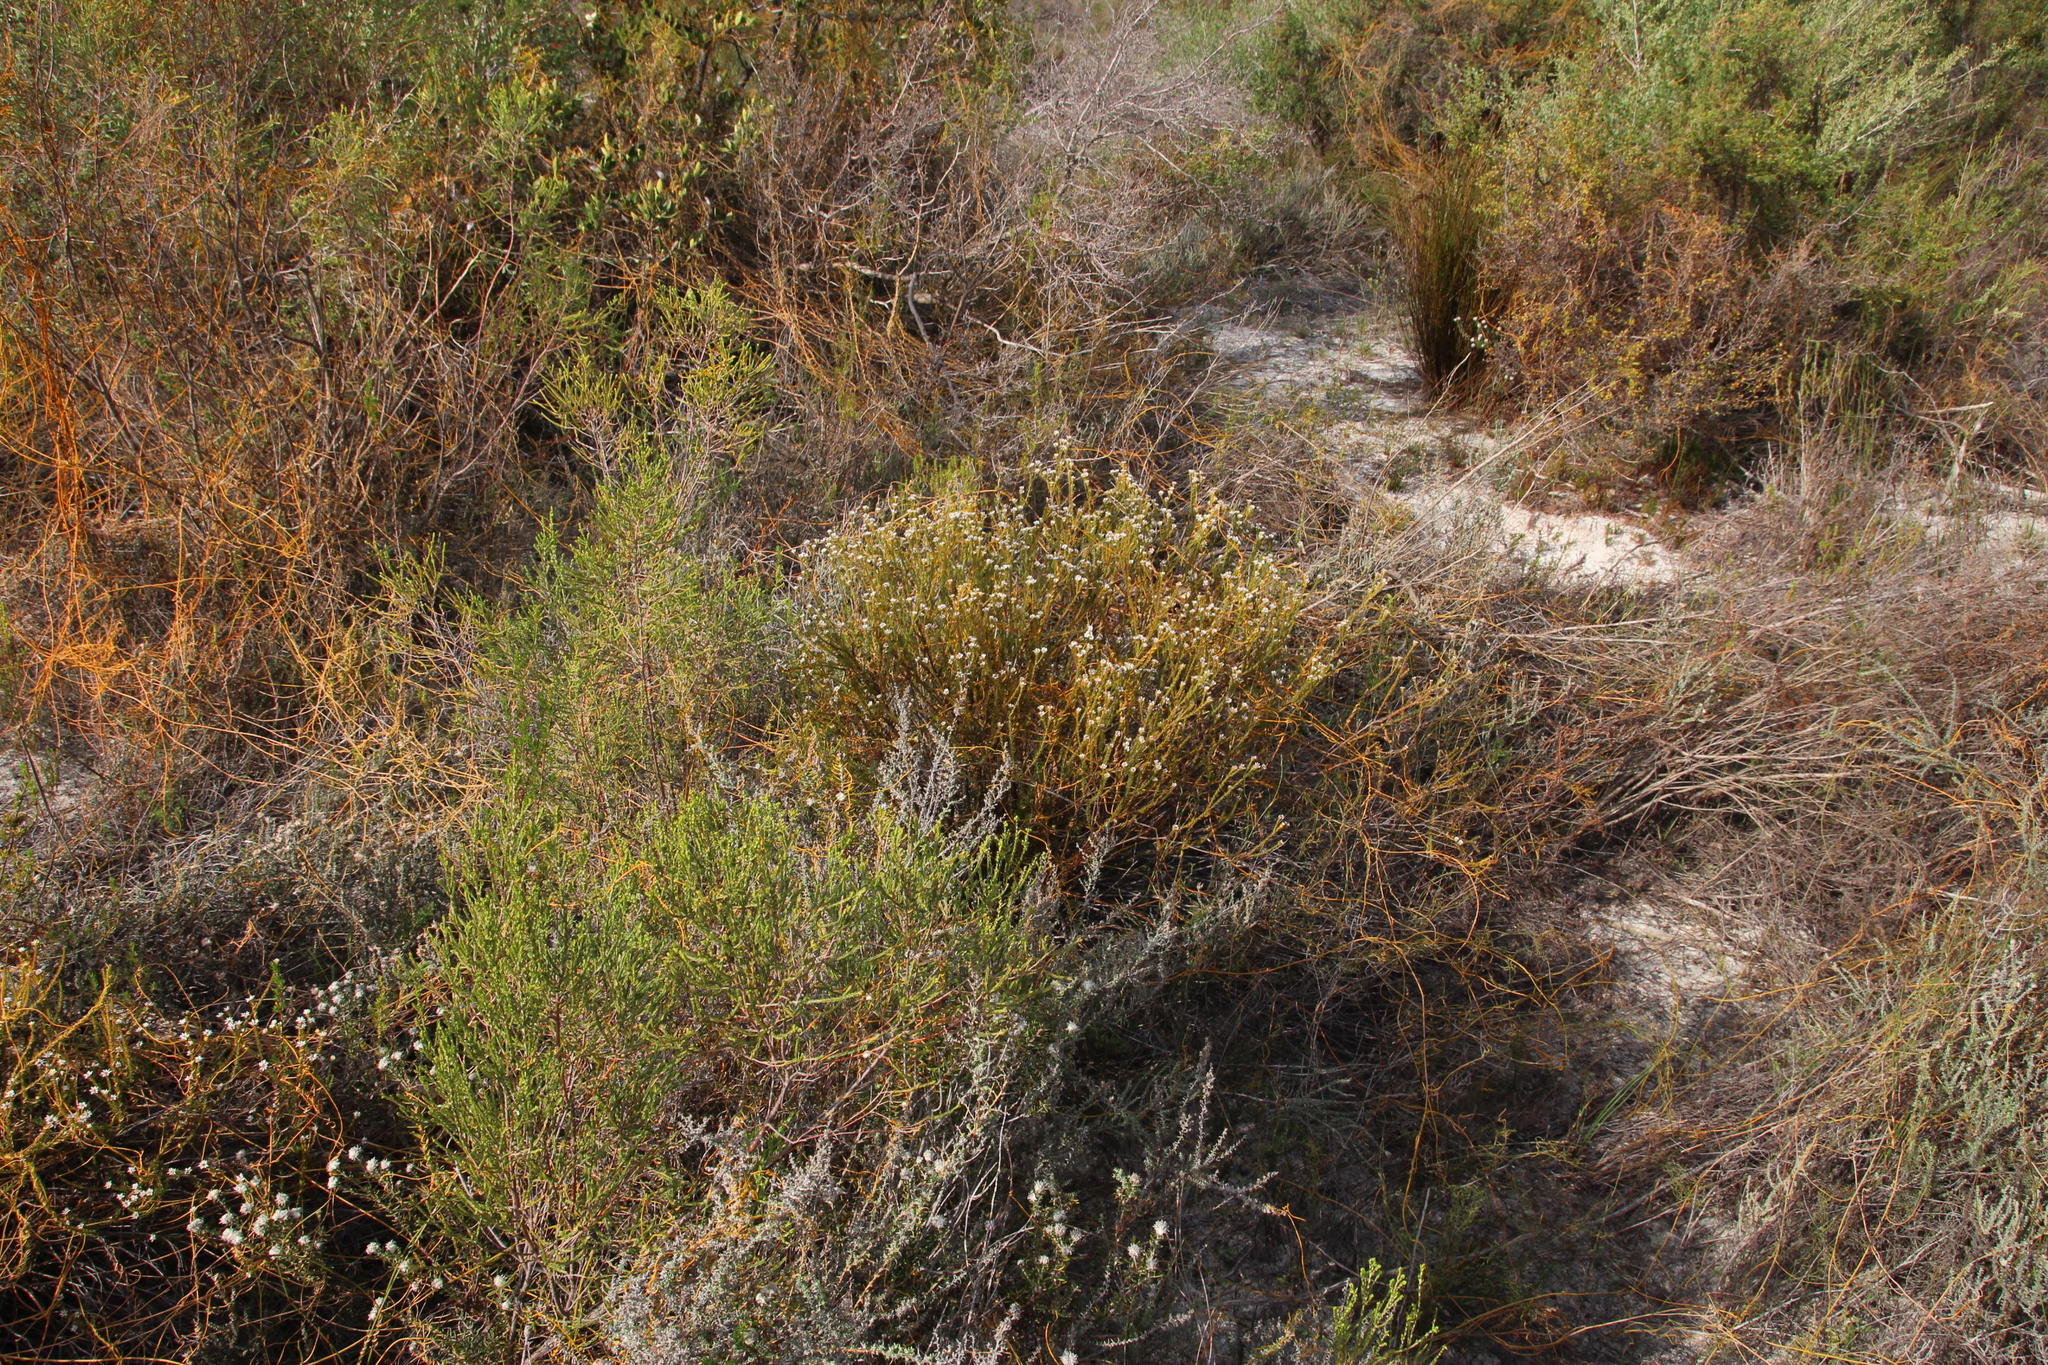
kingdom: Plantae
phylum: Tracheophyta
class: Magnoliopsida
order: Bruniales
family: Bruniaceae
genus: Staavia
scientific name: Staavia radiata
